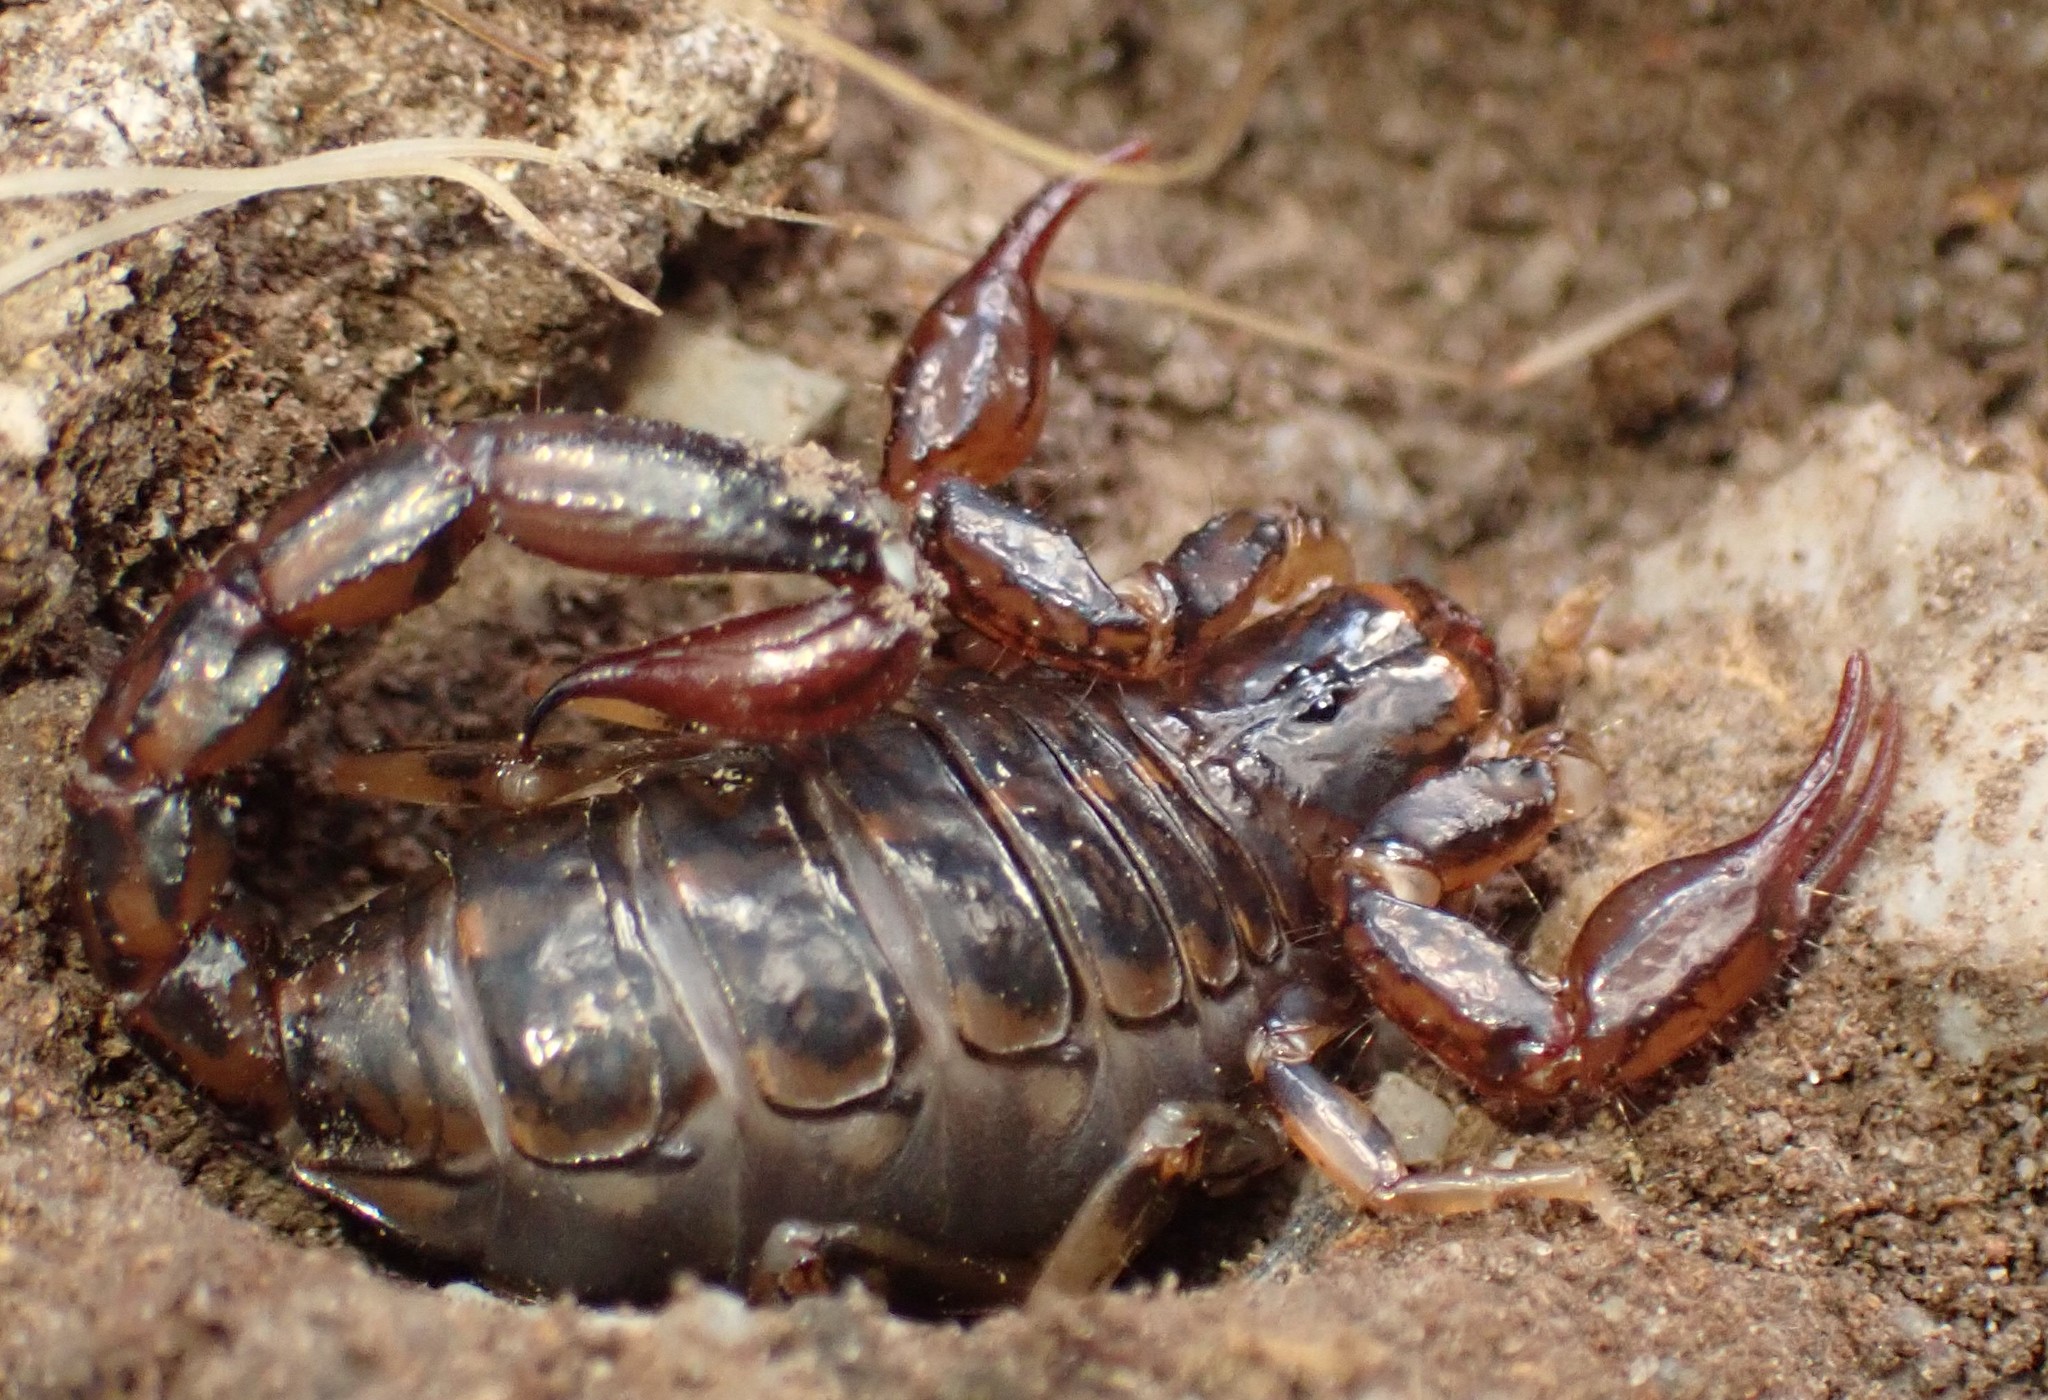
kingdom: Animalia
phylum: Arthropoda
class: Arachnida
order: Scorpiones
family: Bothriuridae
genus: Cercophonius
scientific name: Cercophonius squama
